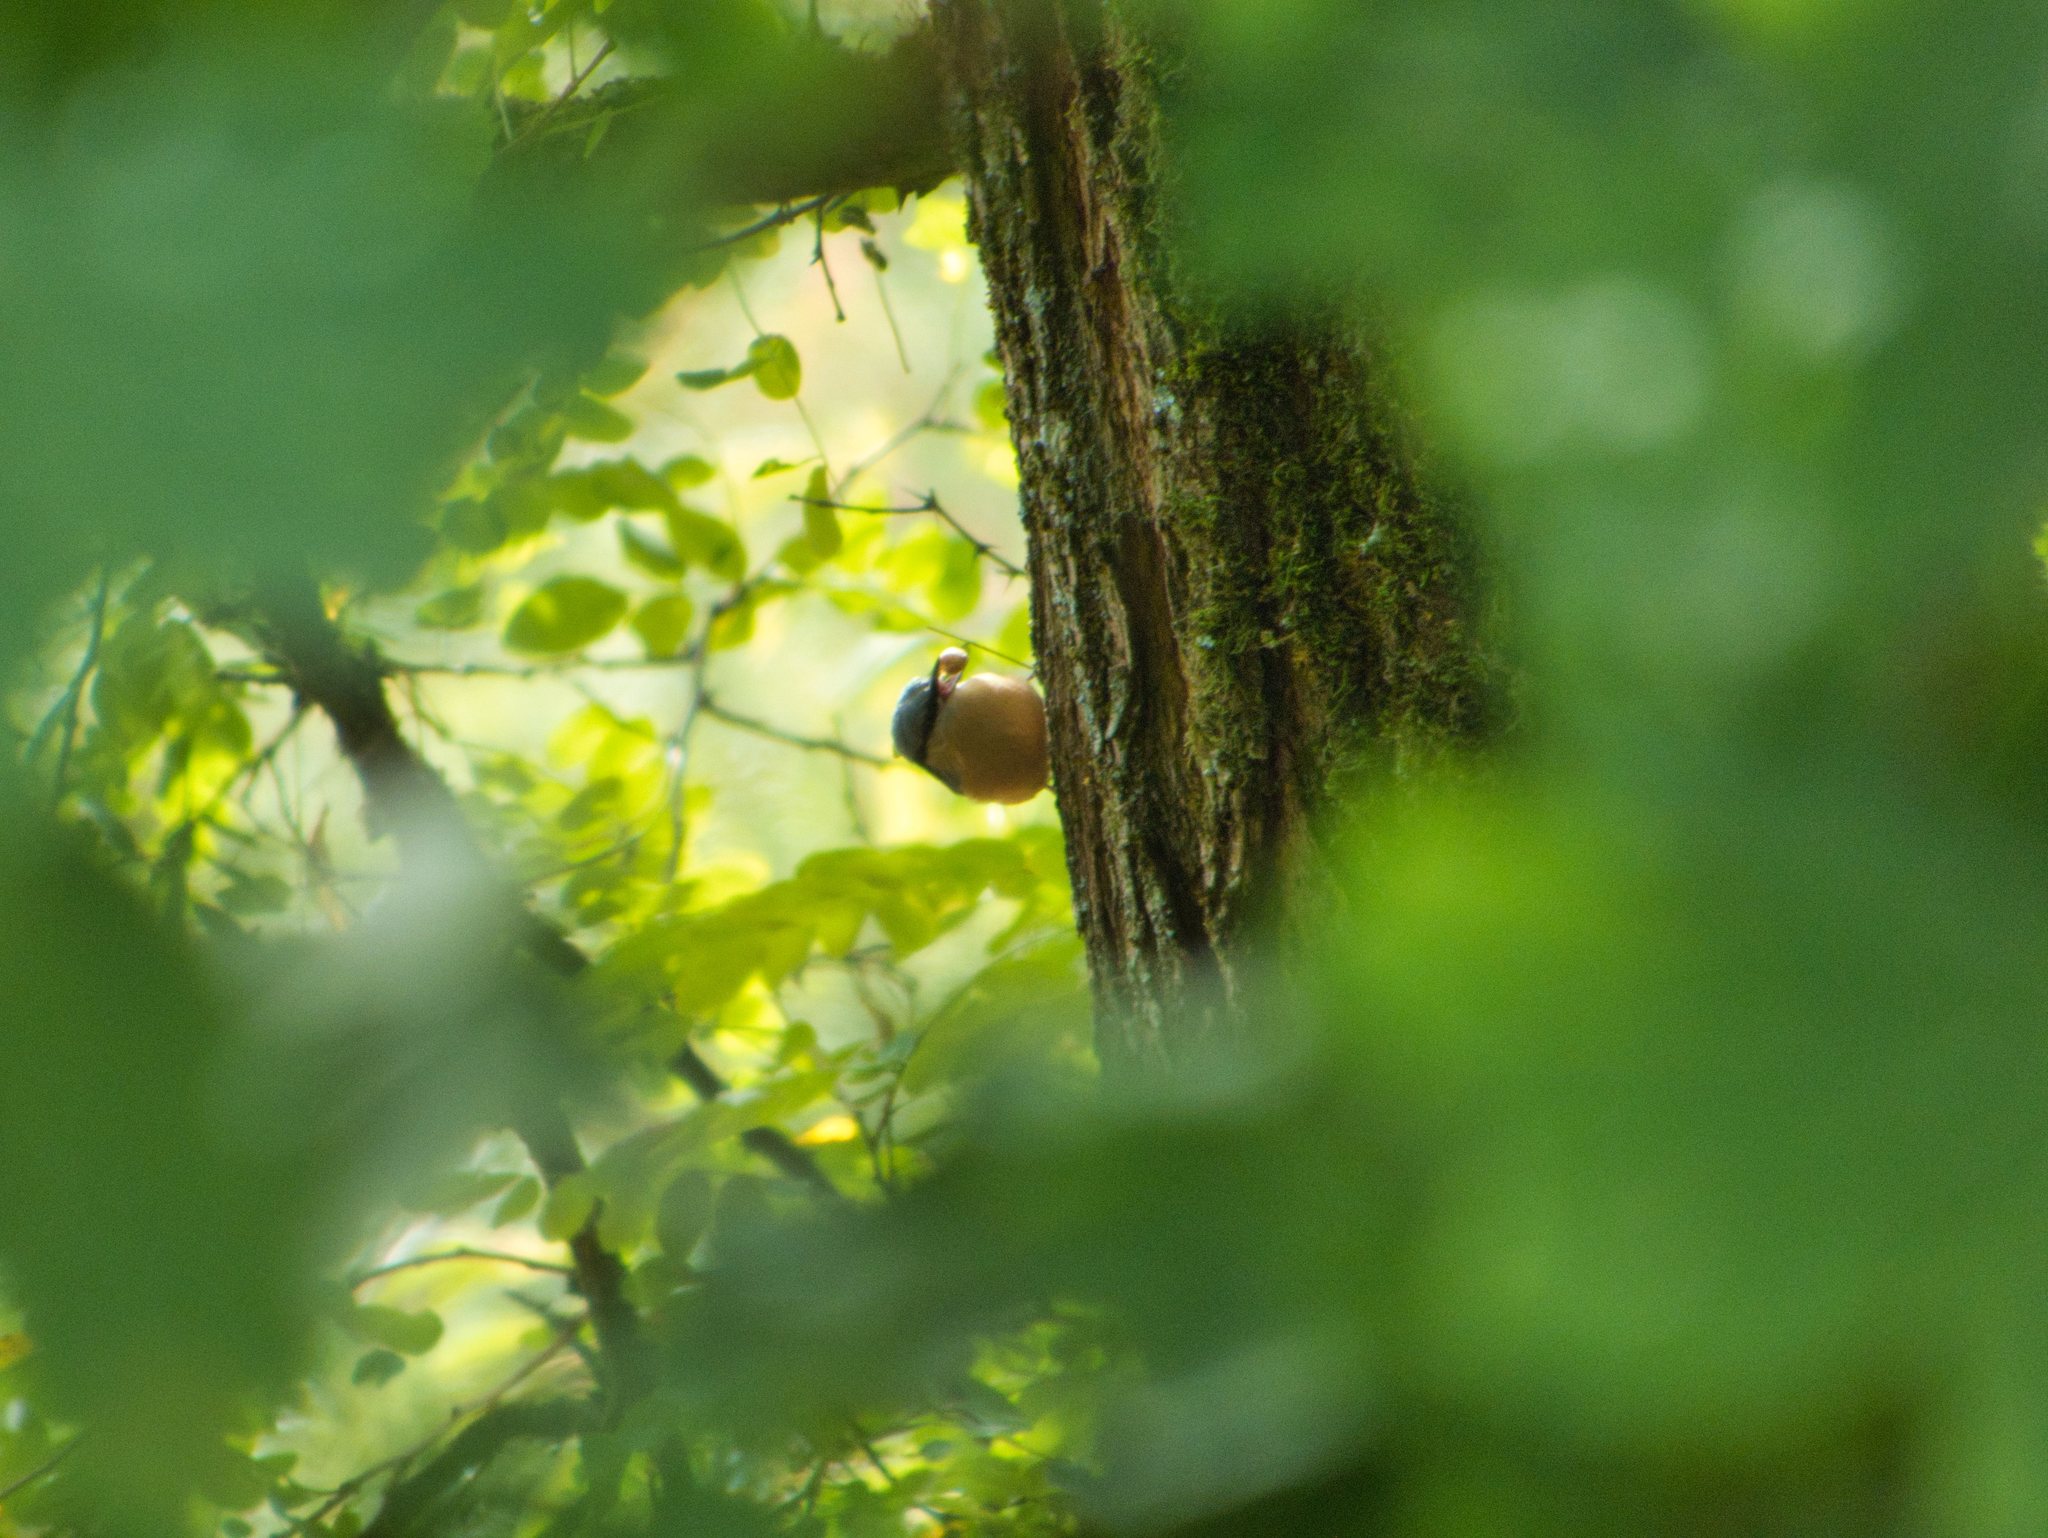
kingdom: Animalia
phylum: Chordata
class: Aves
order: Passeriformes
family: Sittidae
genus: Sitta
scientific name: Sitta europaea
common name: Eurasian nuthatch
